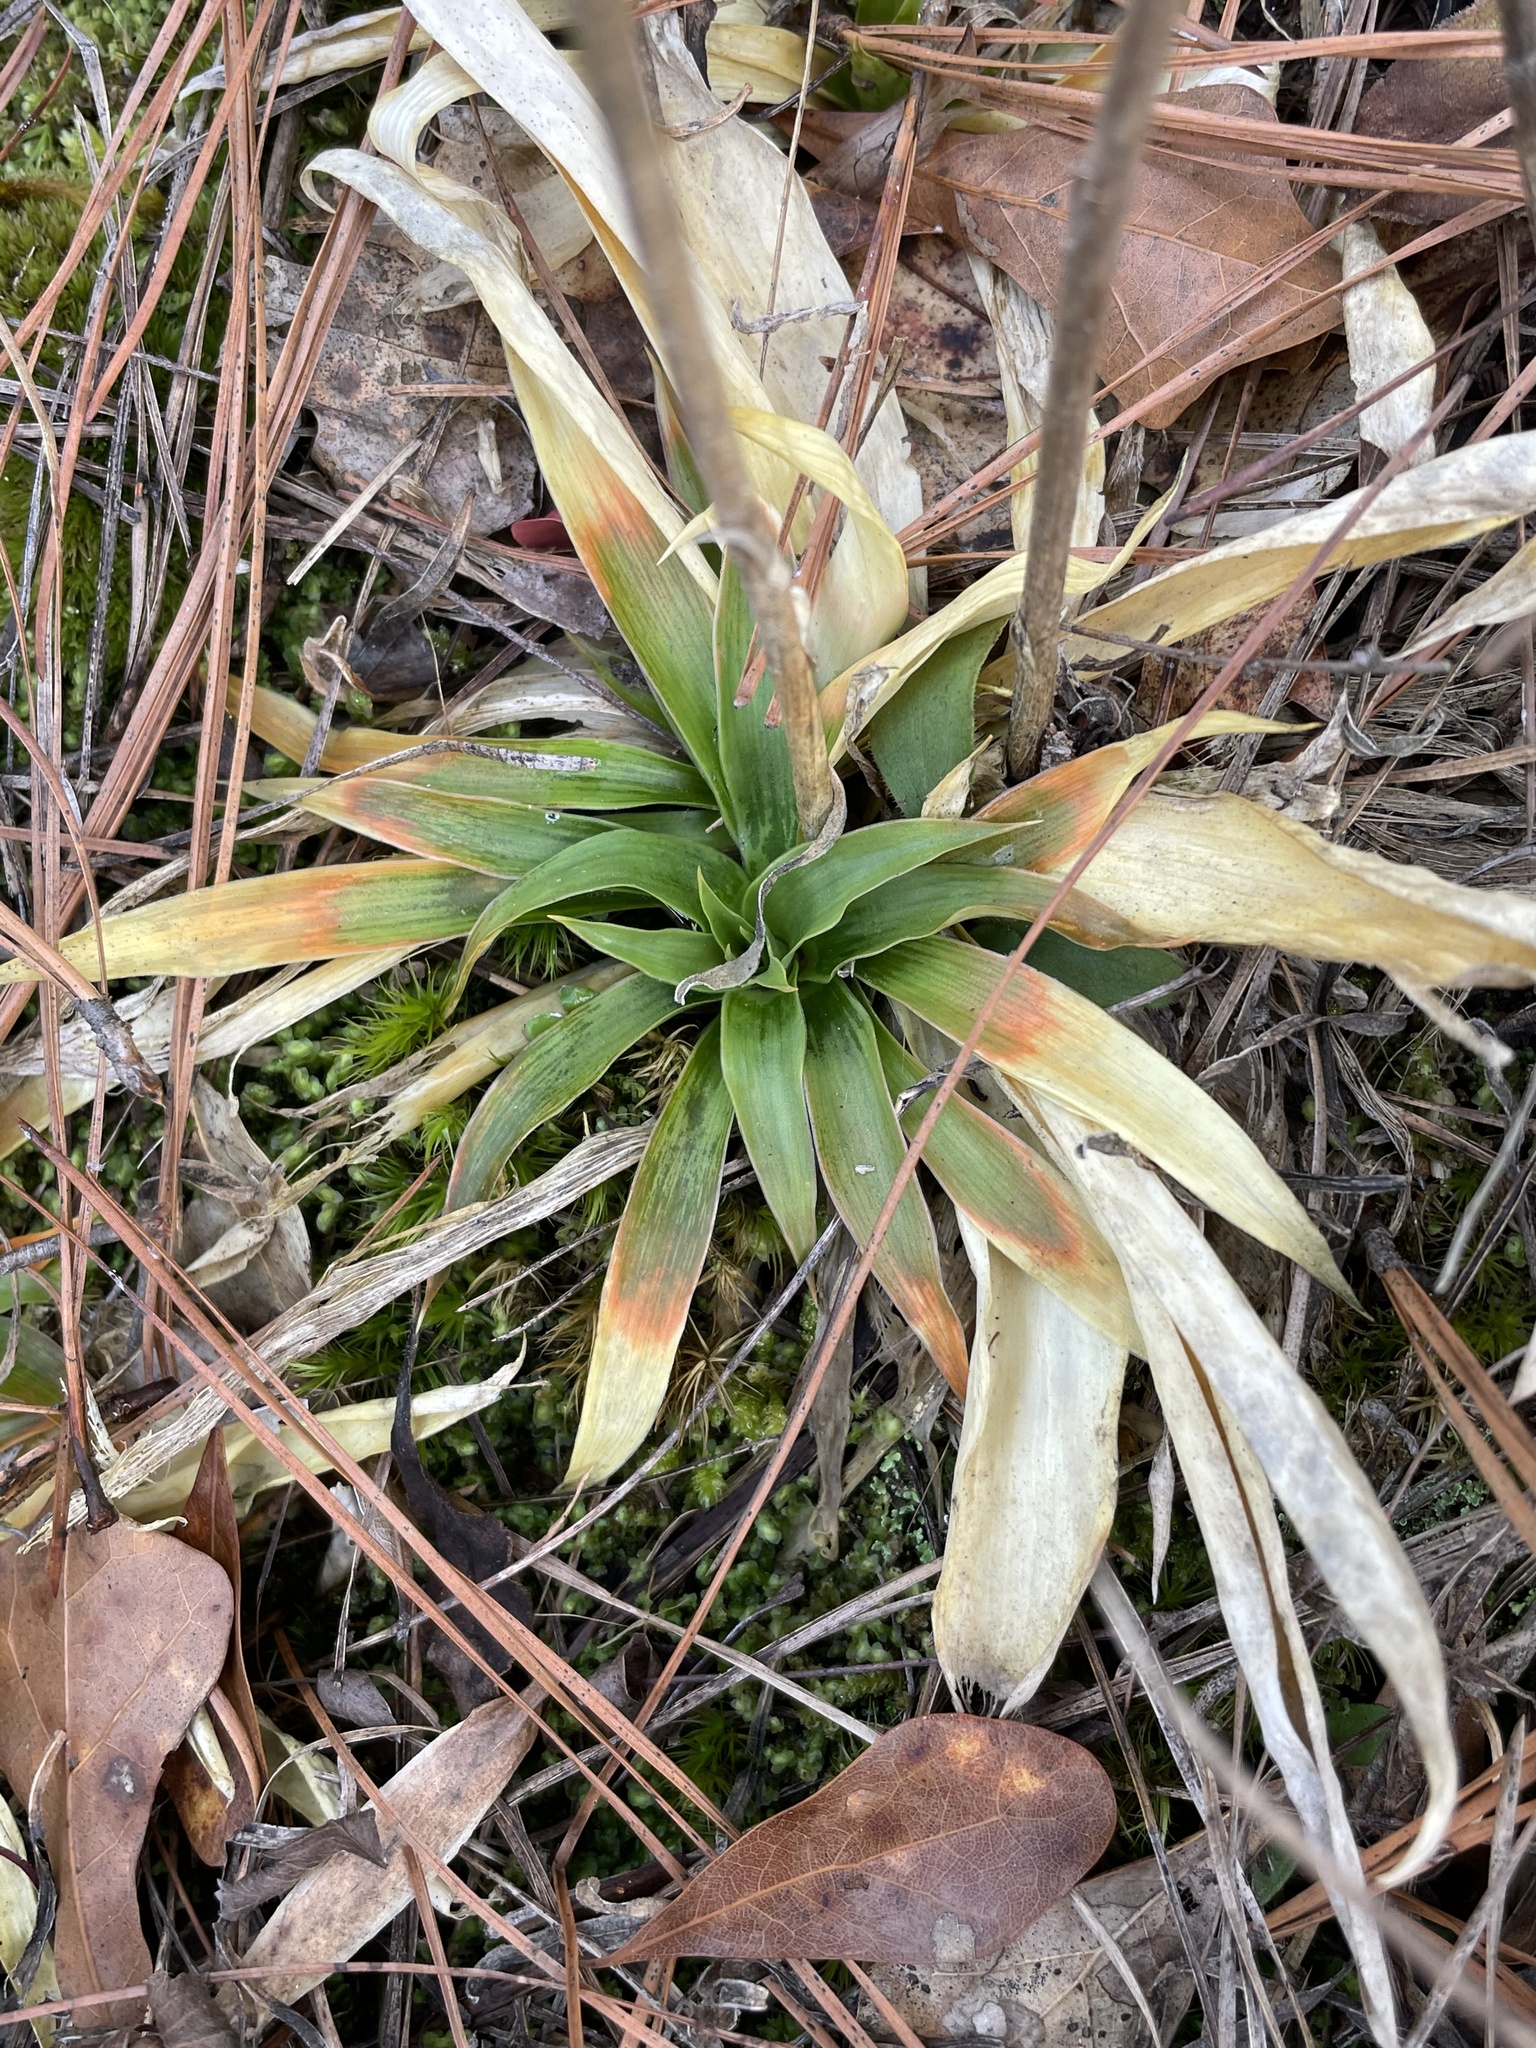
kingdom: Plantae
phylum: Tracheophyta
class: Liliopsida
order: Dioscoreales
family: Nartheciaceae
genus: Aletris
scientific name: Aletris farinosa
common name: Colicroot
